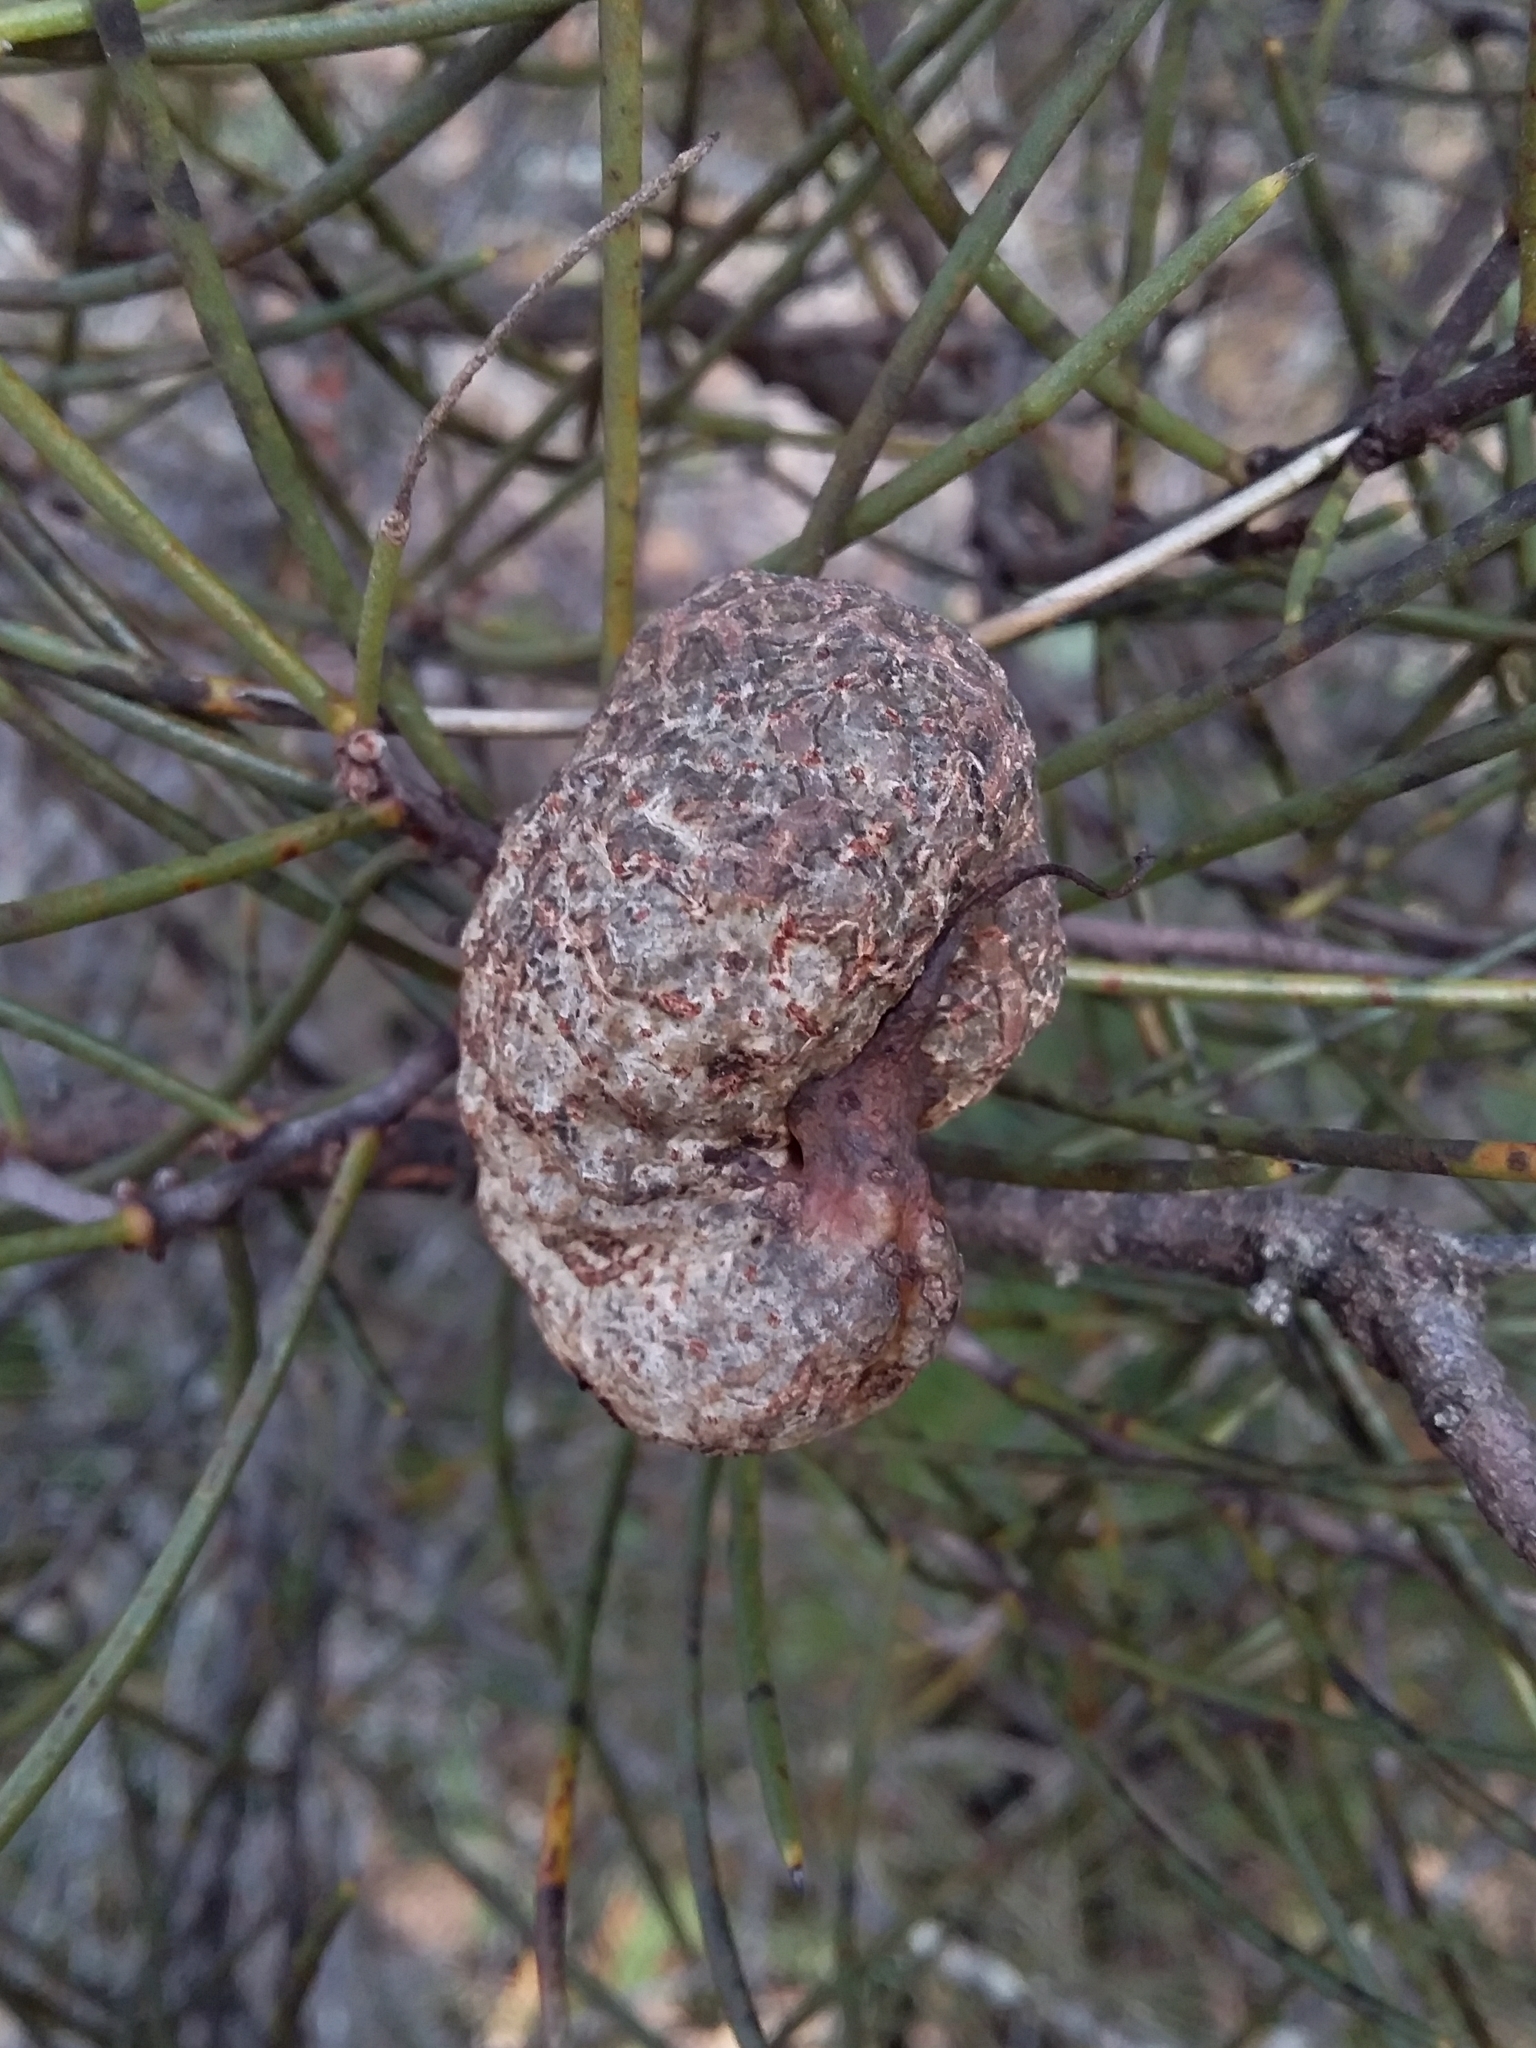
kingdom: Plantae
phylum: Tracheophyta
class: Magnoliopsida
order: Proteales
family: Proteaceae
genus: Hakea
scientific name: Hakea rostrata
